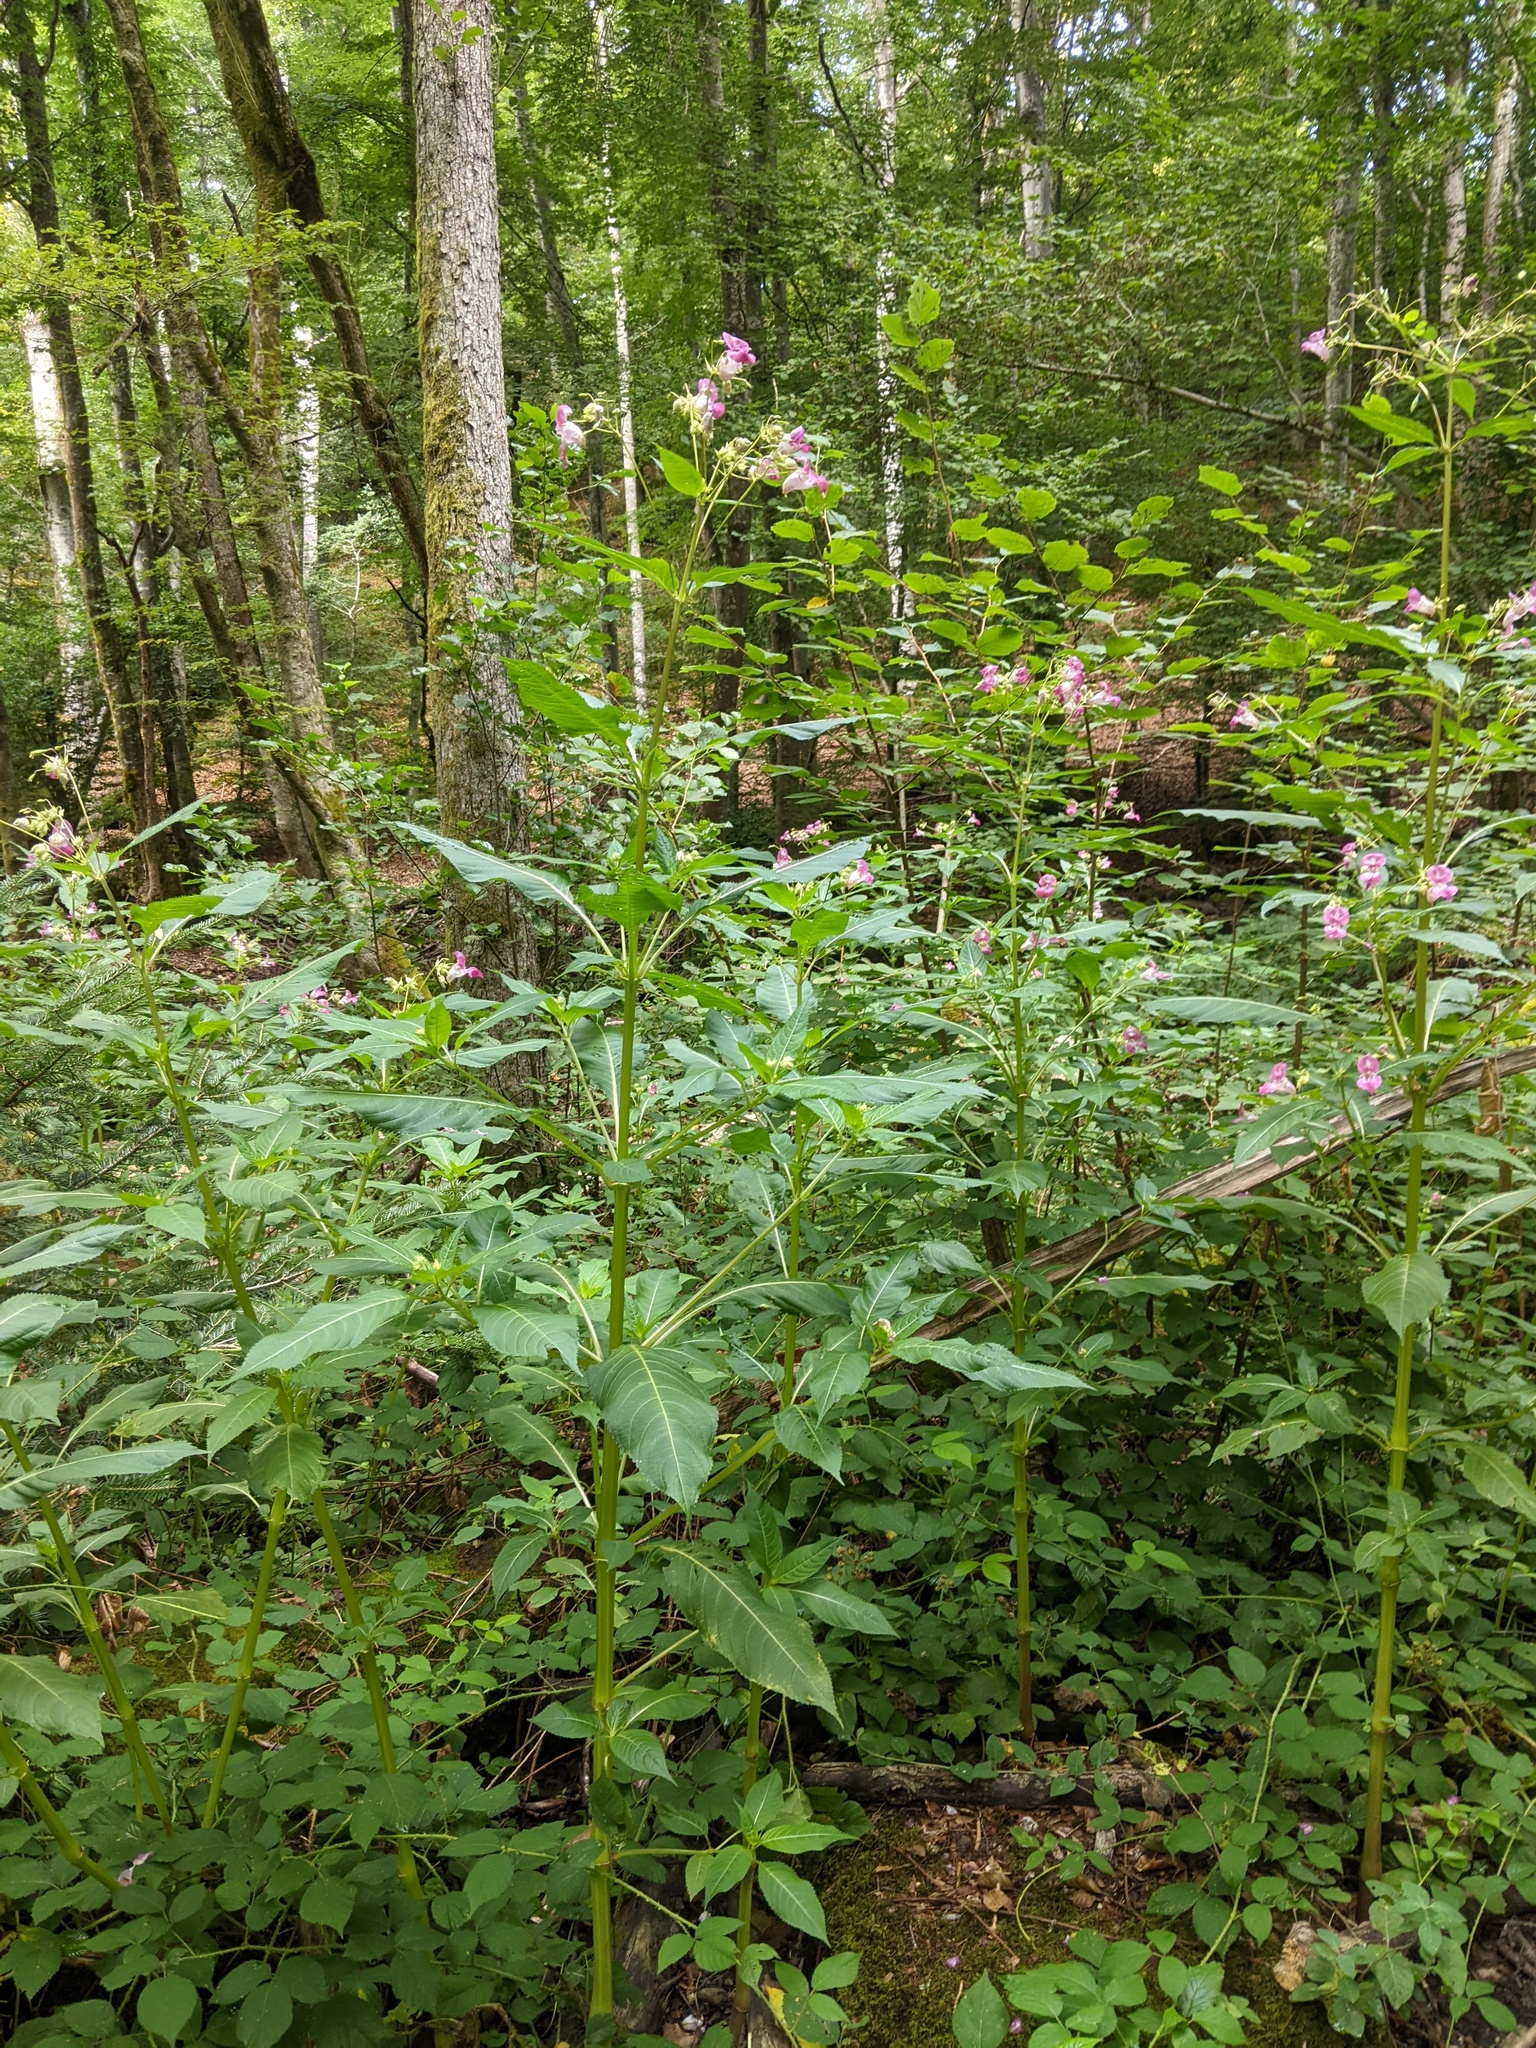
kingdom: Plantae
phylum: Tracheophyta
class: Magnoliopsida
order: Ericales
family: Balsaminaceae
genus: Impatiens
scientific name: Impatiens glandulifera
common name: Himalayan balsam
